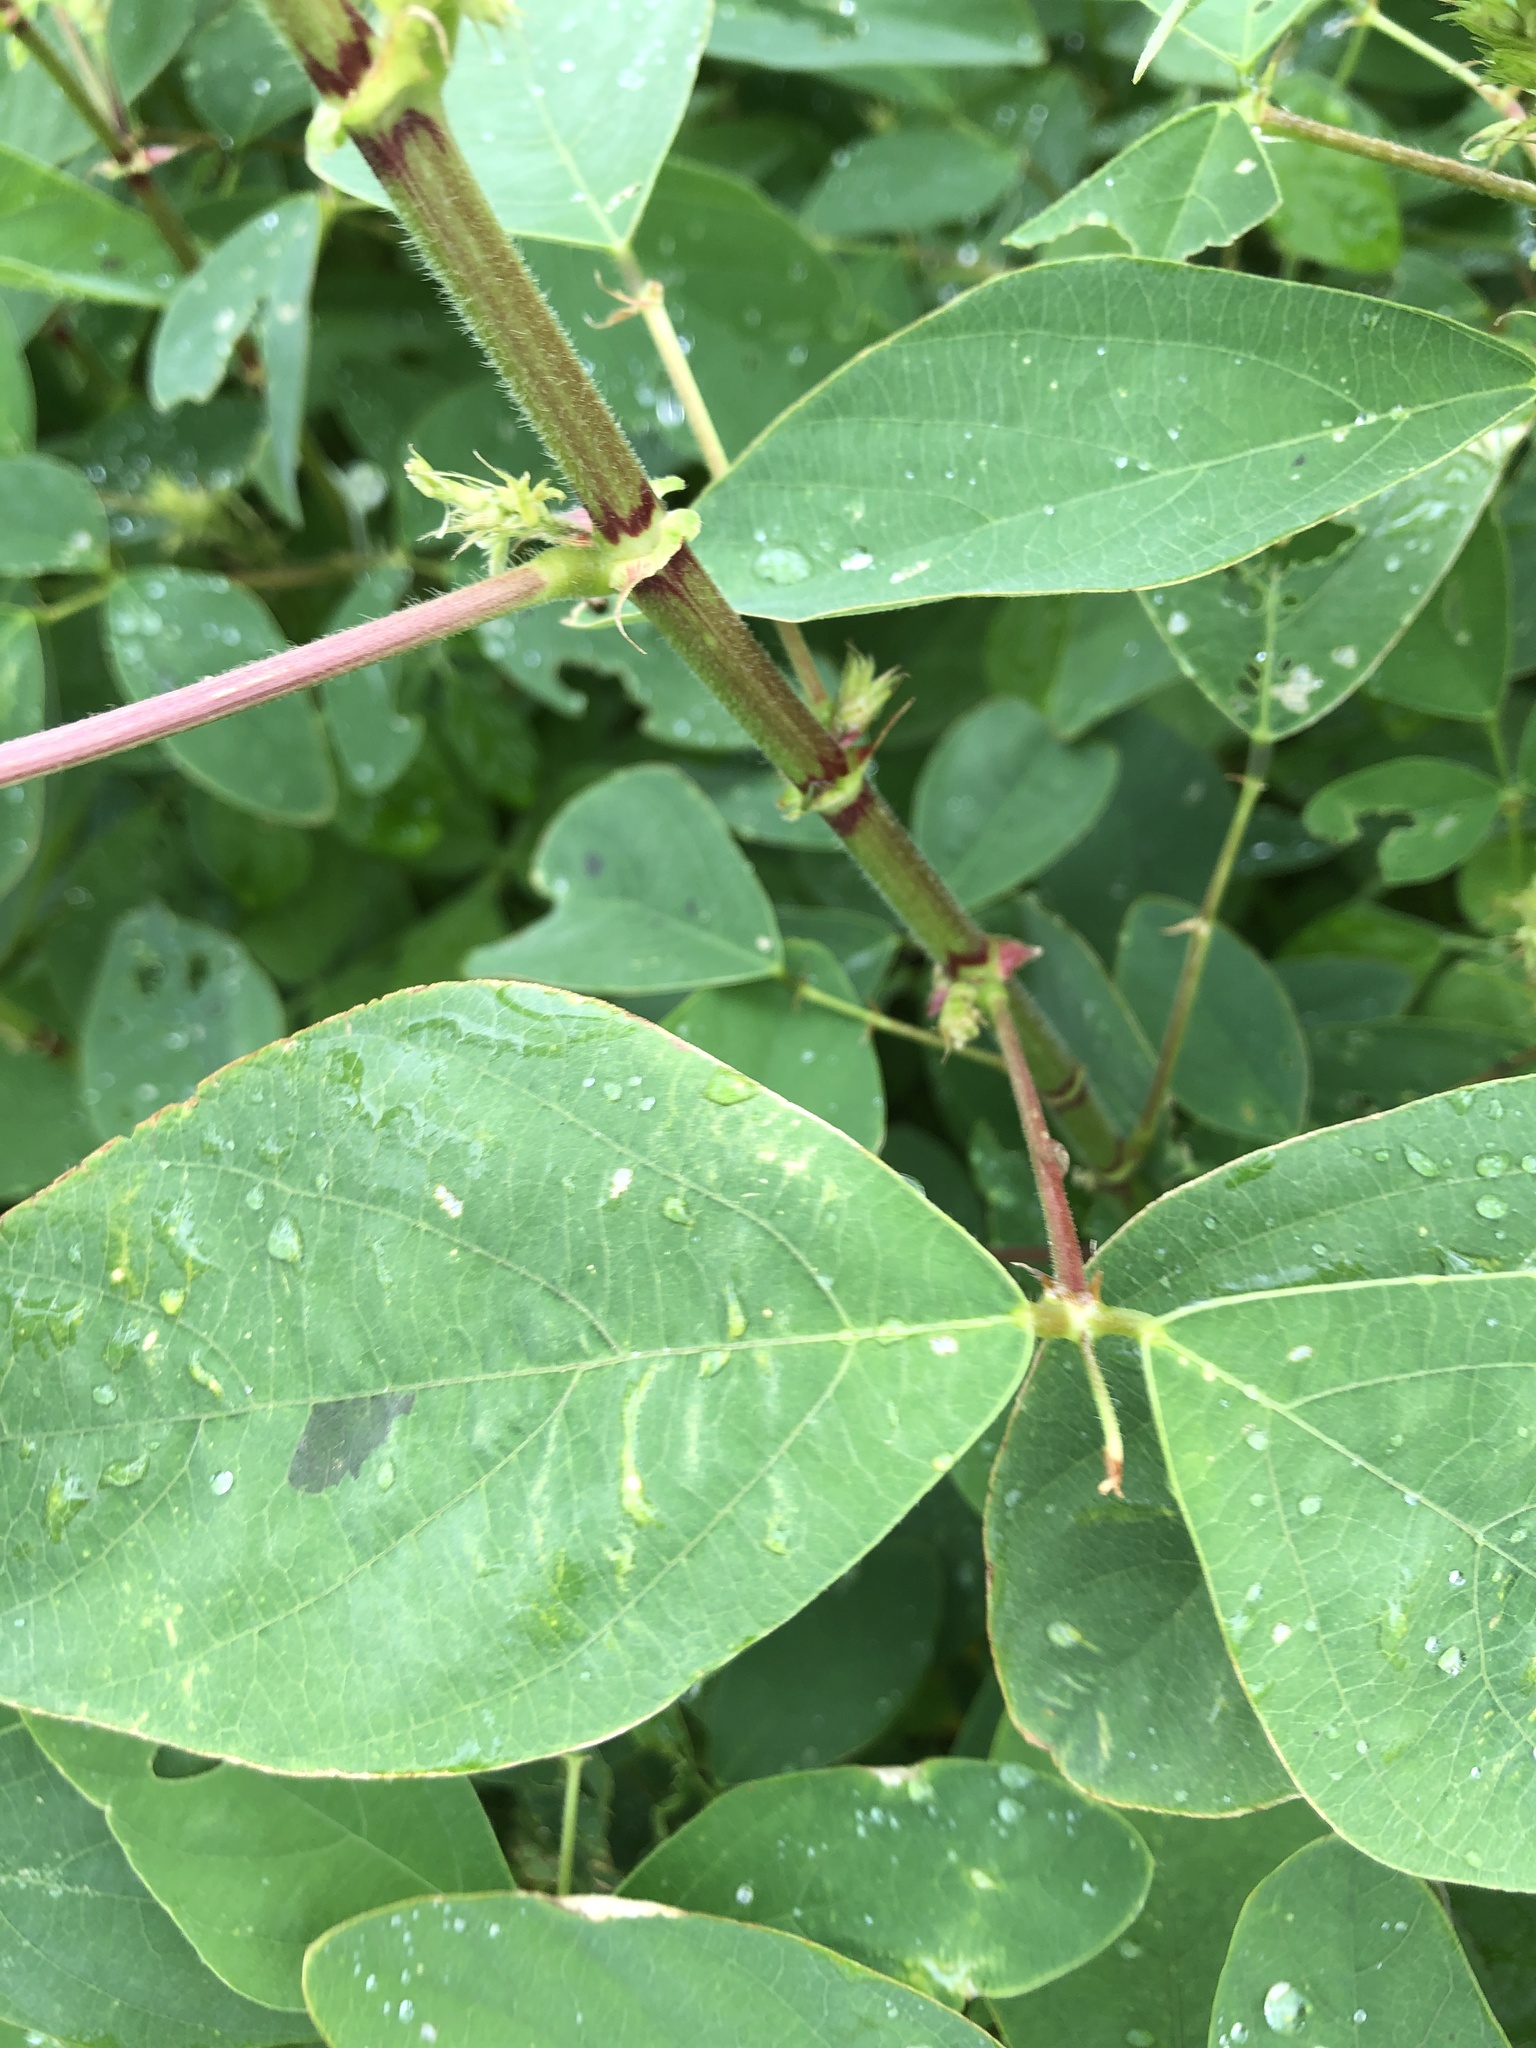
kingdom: Plantae
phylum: Tracheophyta
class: Magnoliopsida
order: Fabales
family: Fabaceae
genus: Desmodium
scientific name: Desmodium tortuosum
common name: Dixie ticktrefoil
